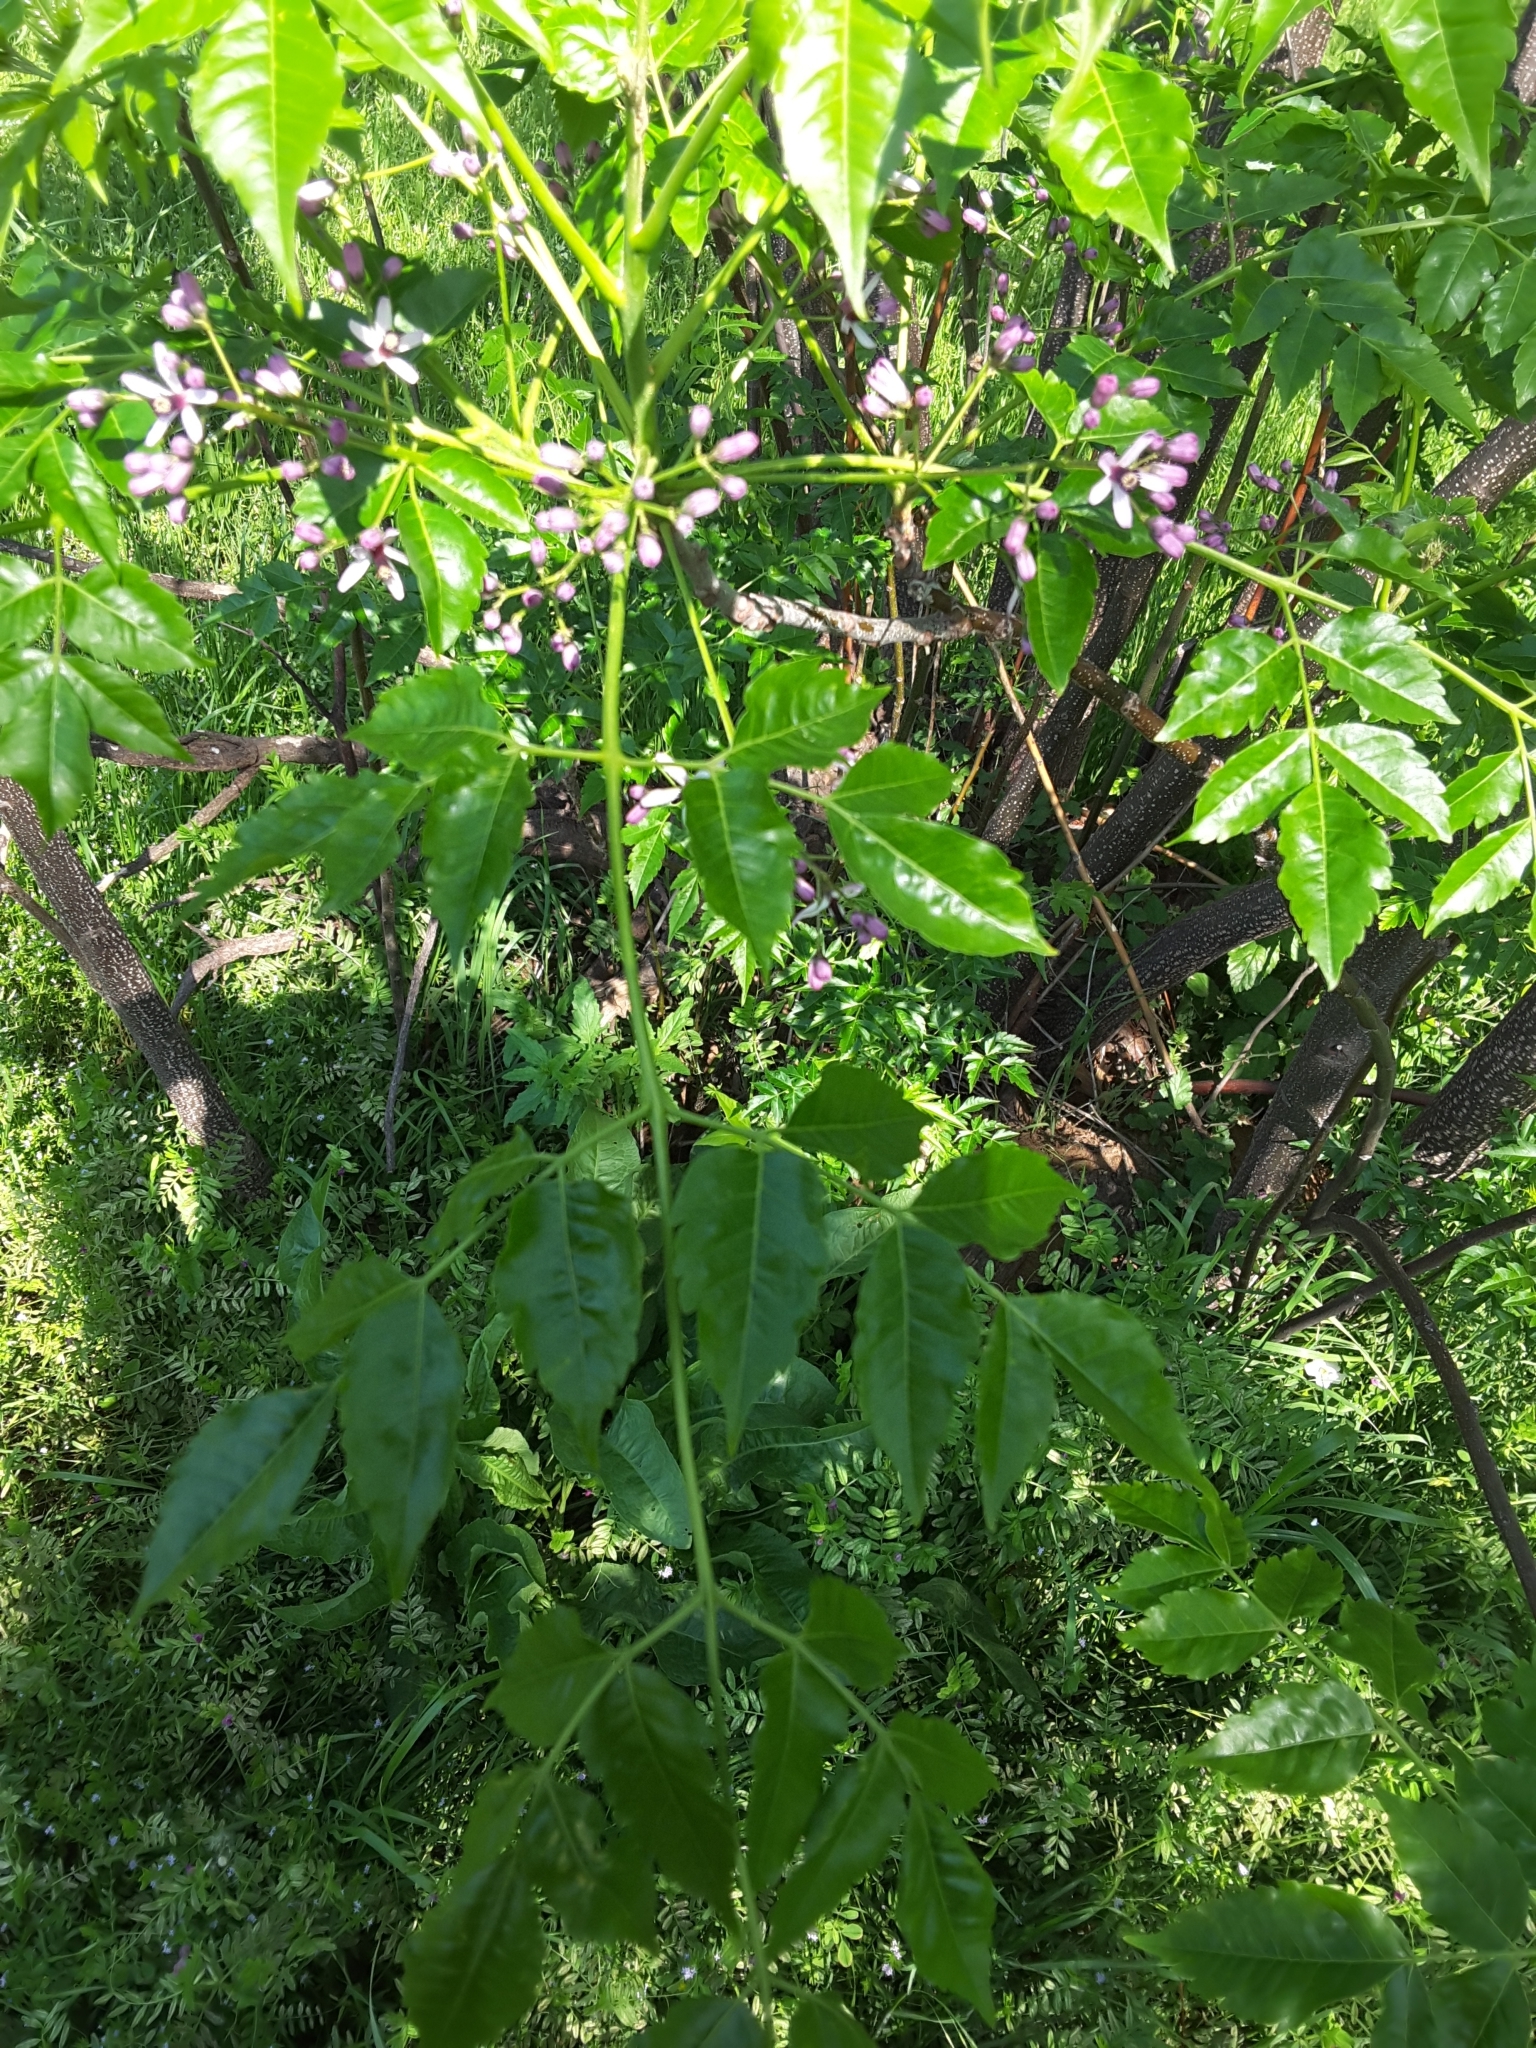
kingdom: Plantae
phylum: Tracheophyta
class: Magnoliopsida
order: Sapindales
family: Meliaceae
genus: Melia
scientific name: Melia azedarach
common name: Chinaberrytree
